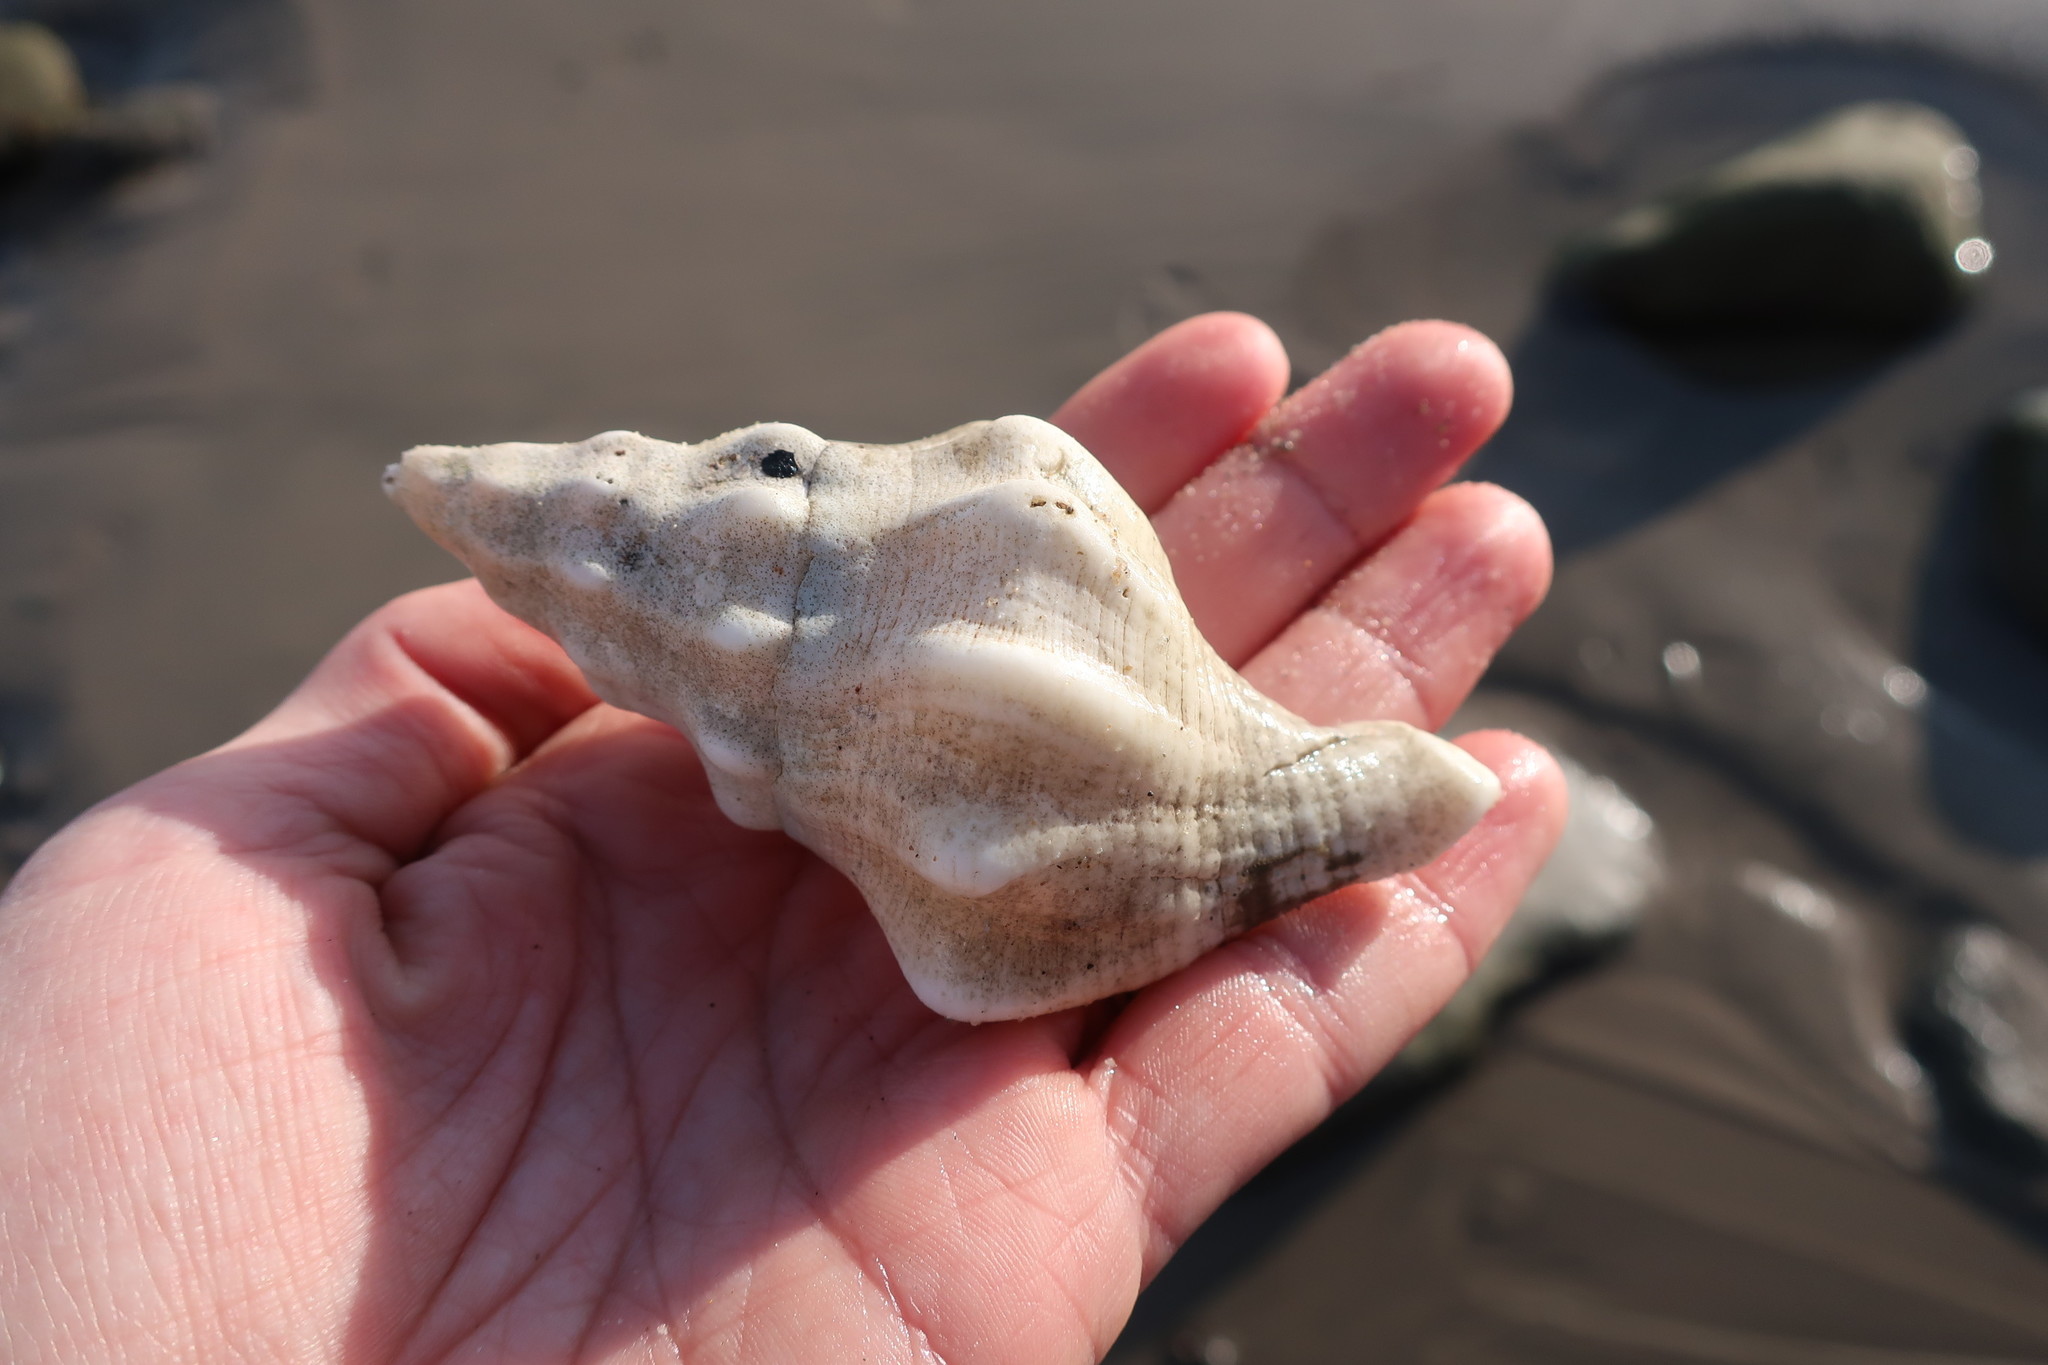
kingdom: Animalia
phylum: Mollusca
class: Gastropoda
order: Neogastropoda
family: Austrosiphonidae
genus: Kelletia
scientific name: Kelletia kelletii
